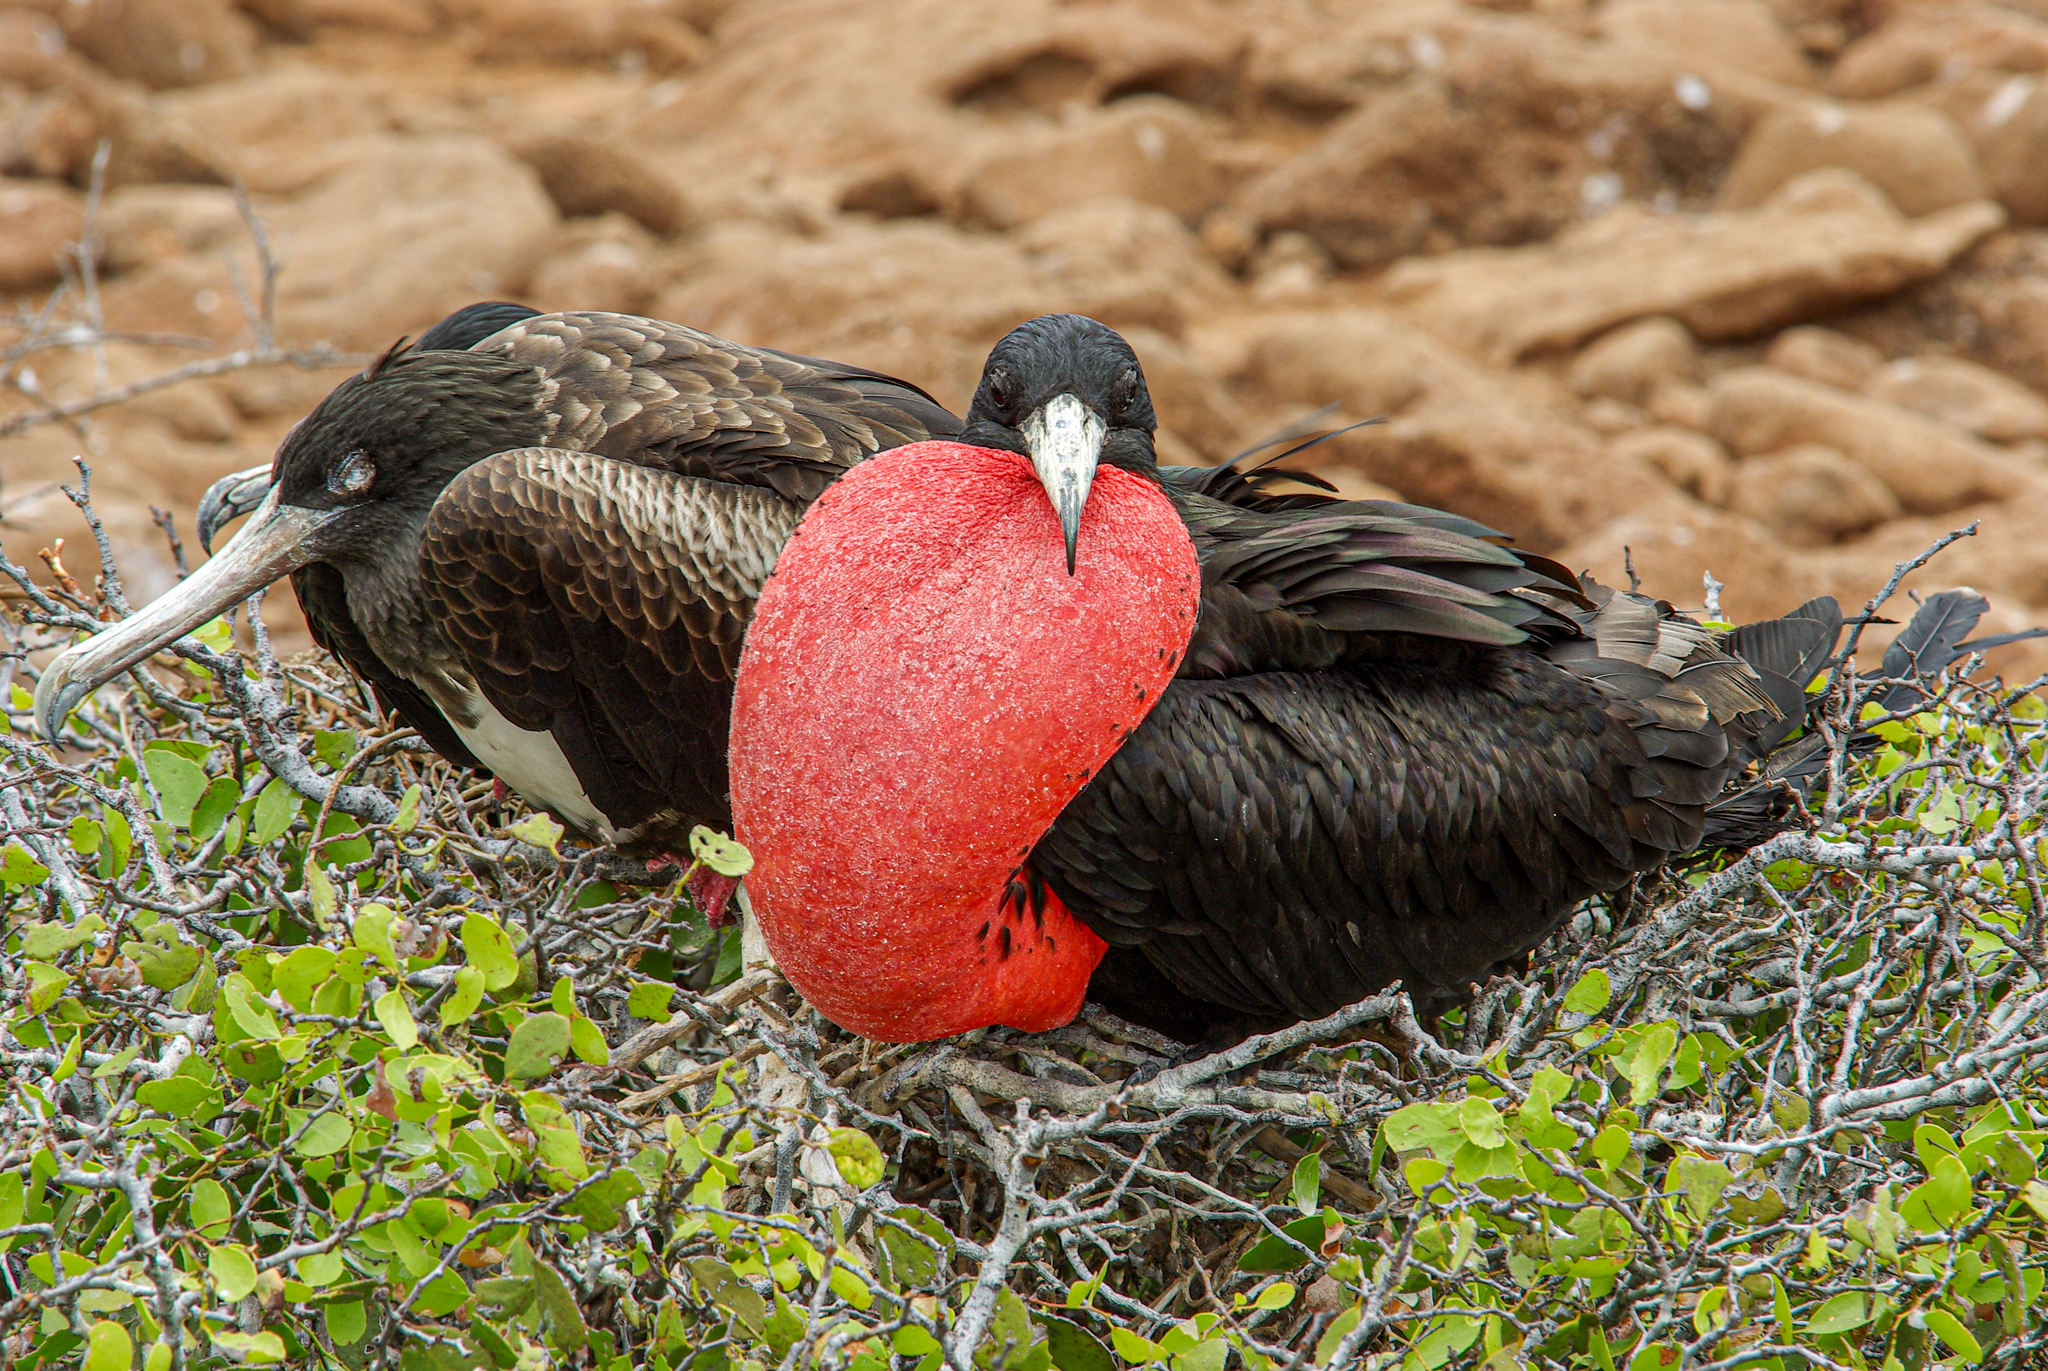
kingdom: Animalia
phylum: Chordata
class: Aves
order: Suliformes
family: Fregatidae
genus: Fregata
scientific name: Fregata magnificens
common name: Magnificent frigatebird
